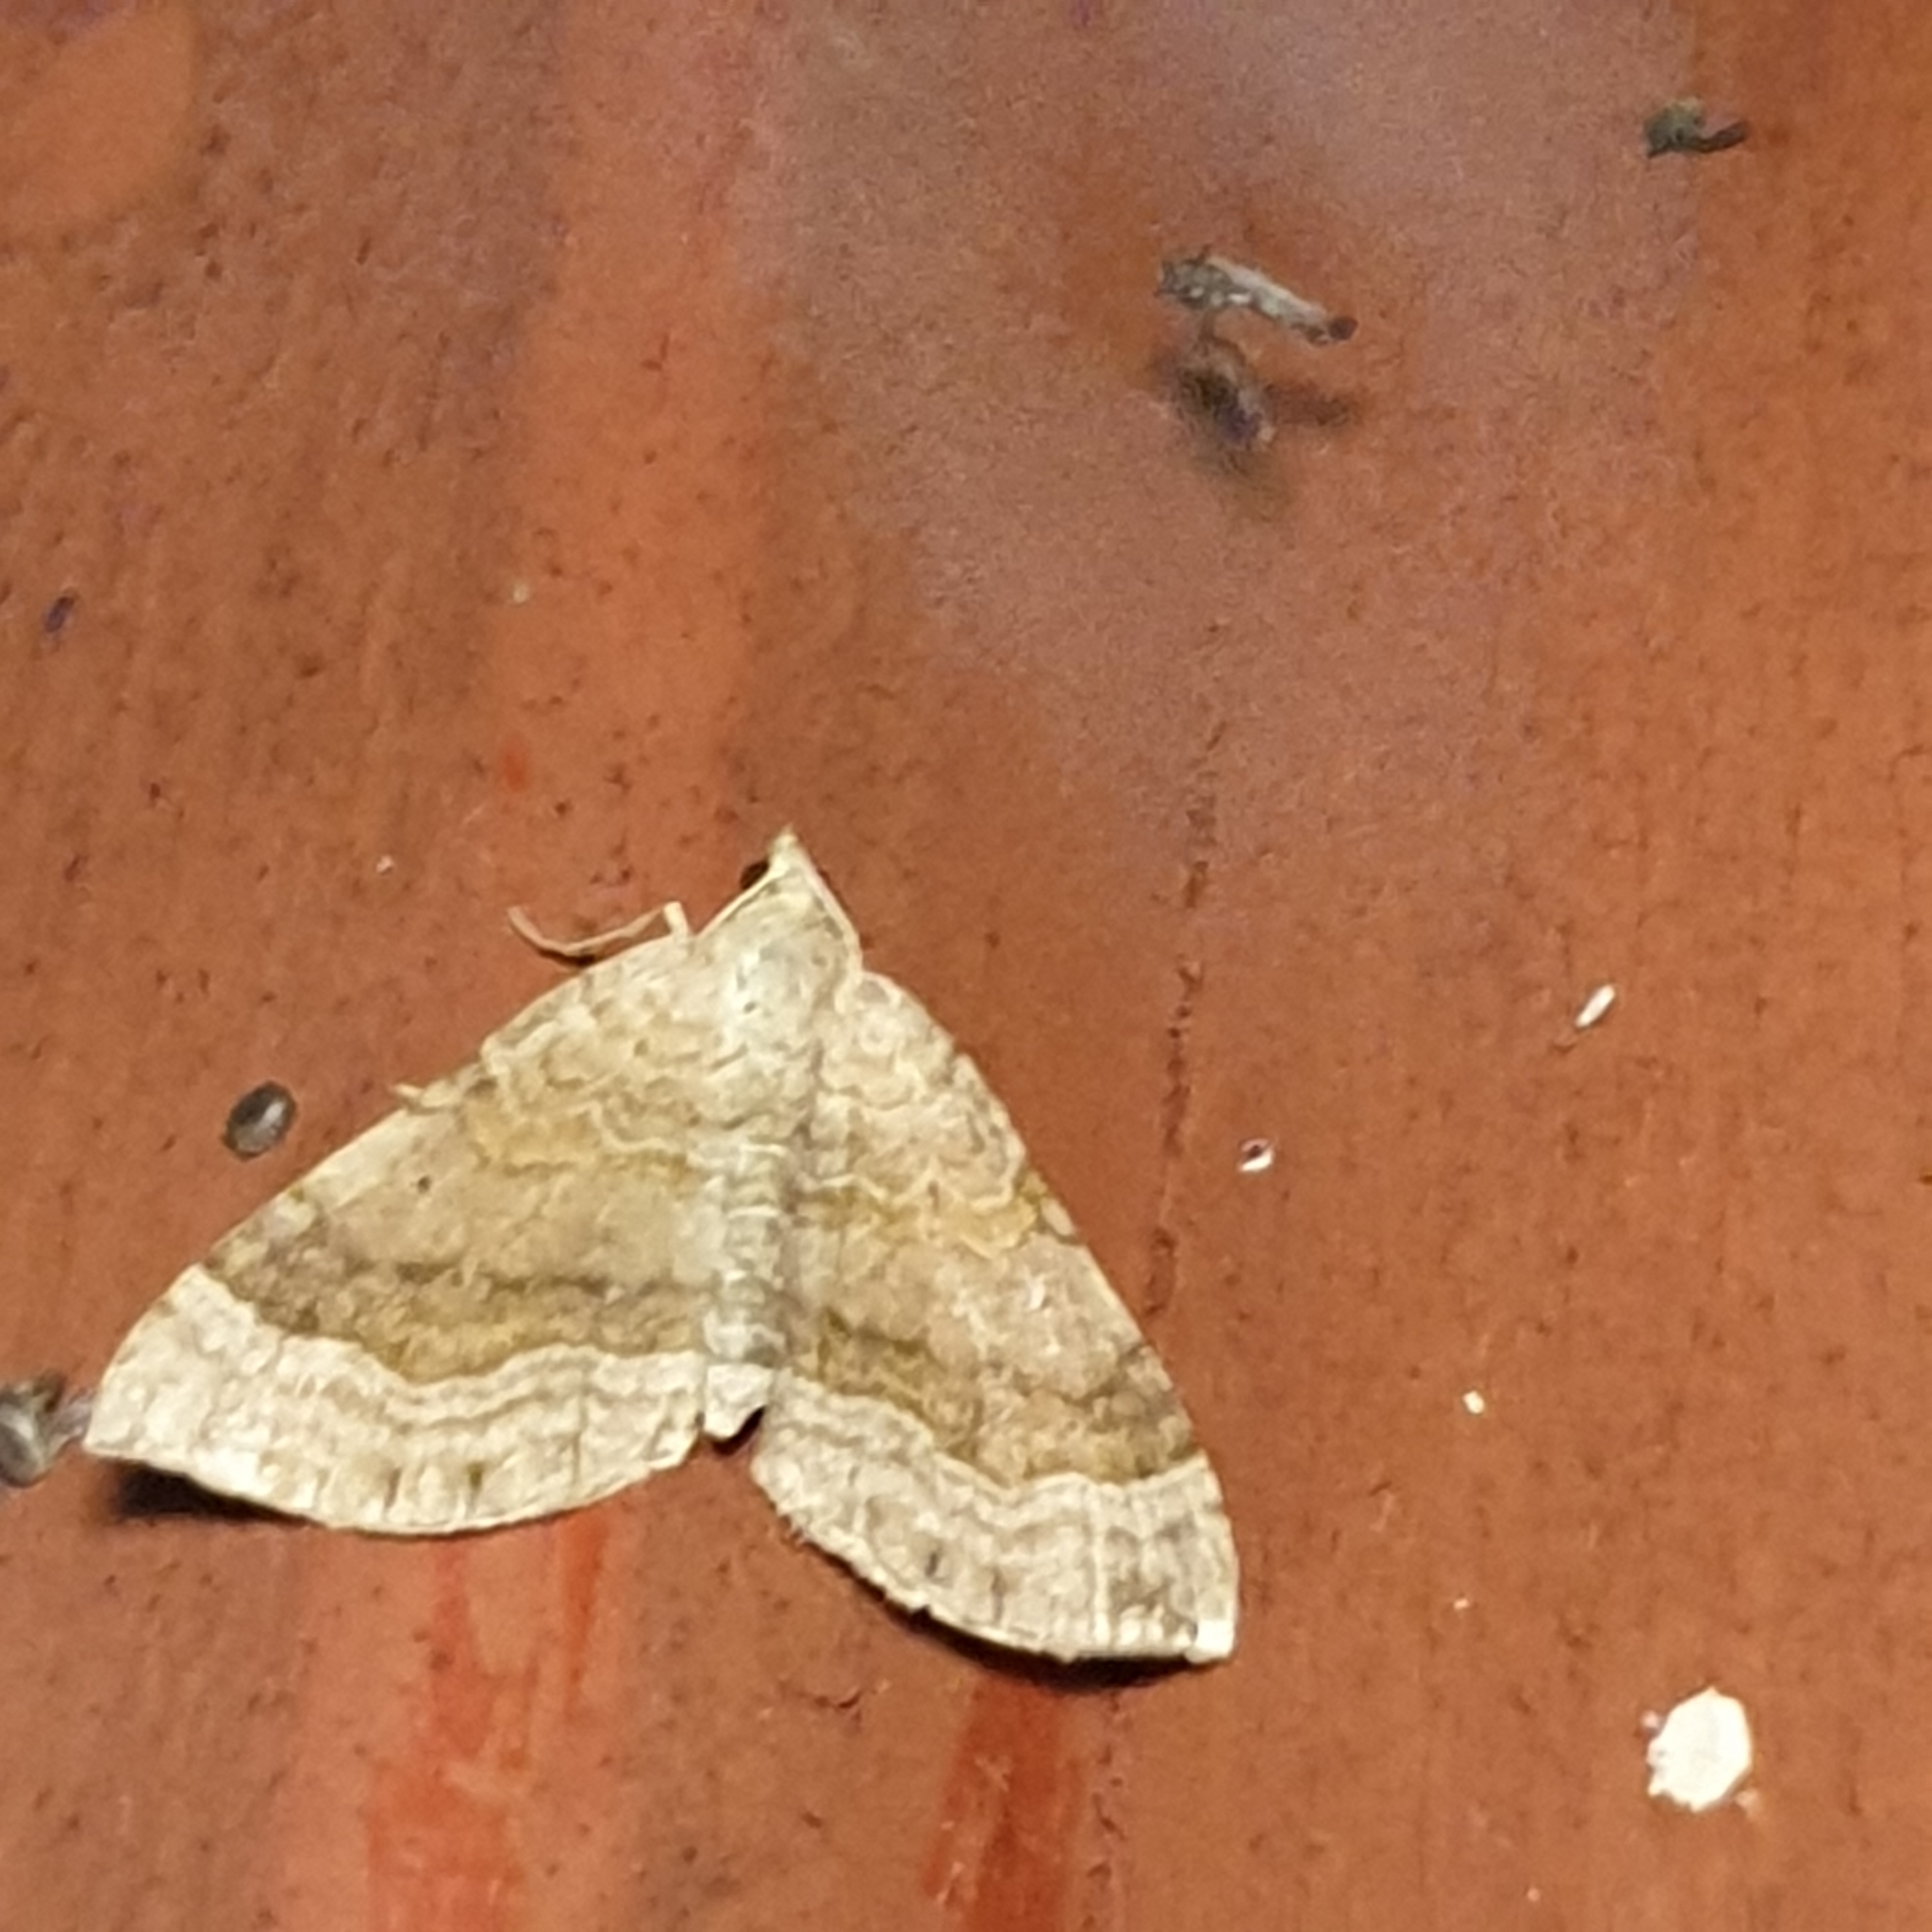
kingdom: Animalia
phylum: Arthropoda
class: Insecta
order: Lepidoptera
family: Geometridae
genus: Scotopteryx
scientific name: Scotopteryx chenopodiata
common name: Shaded broad-bar
